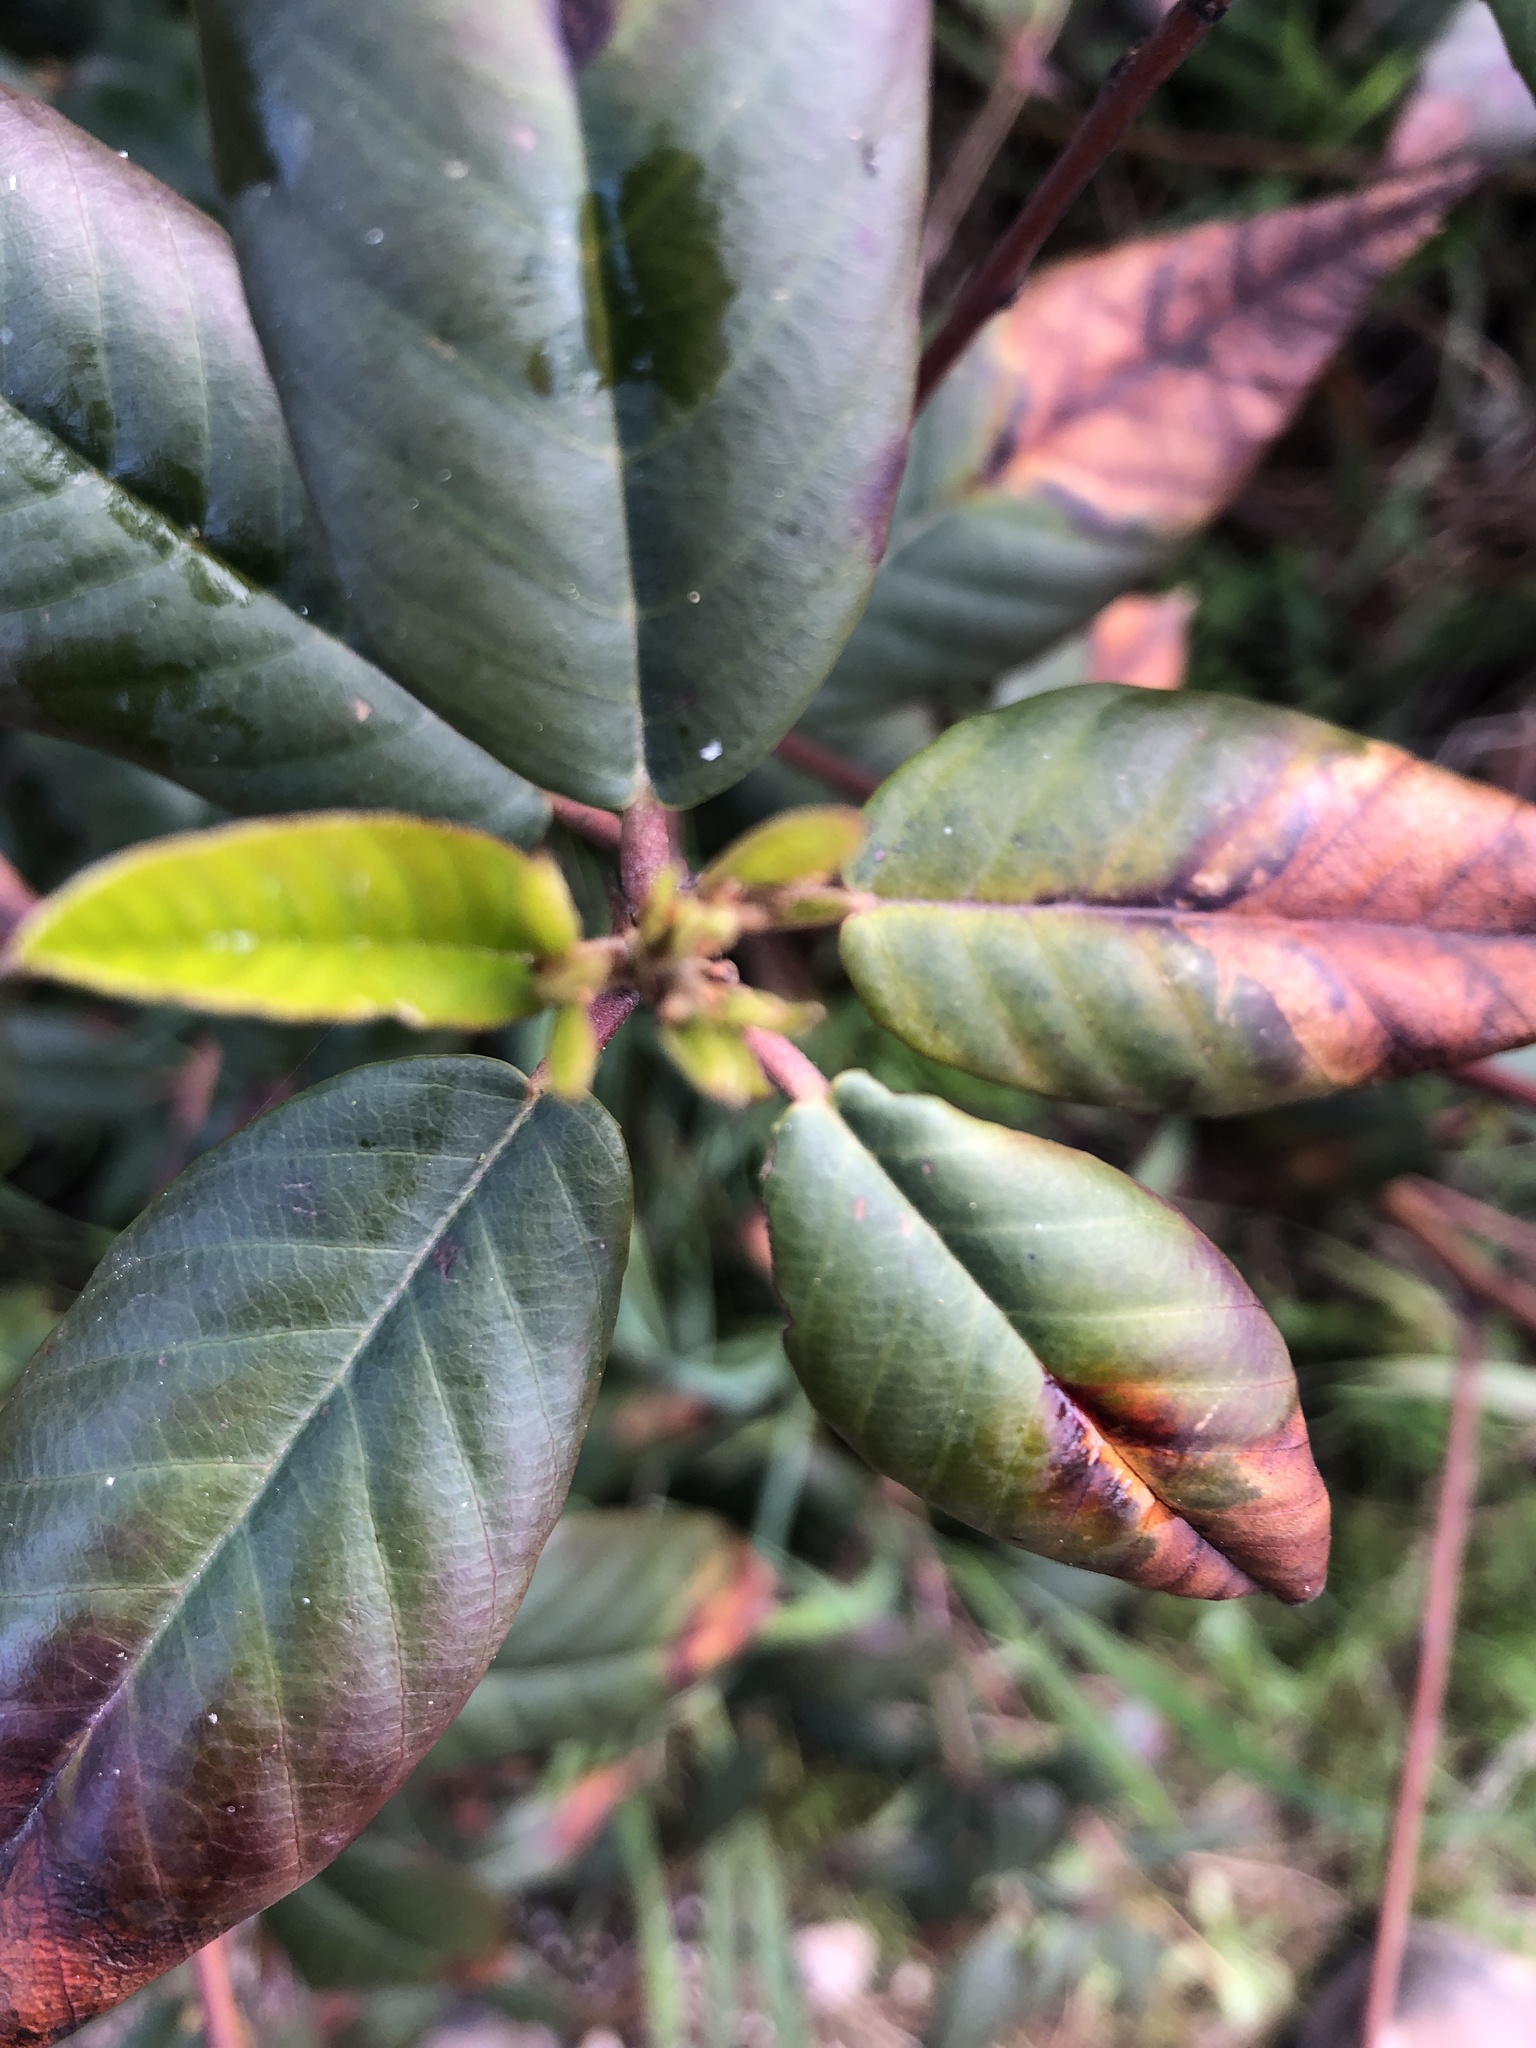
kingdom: Plantae
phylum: Tracheophyta
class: Magnoliopsida
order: Rosales
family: Rhamnaceae
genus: Frangula
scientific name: Frangula californica
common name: California buckthorn
